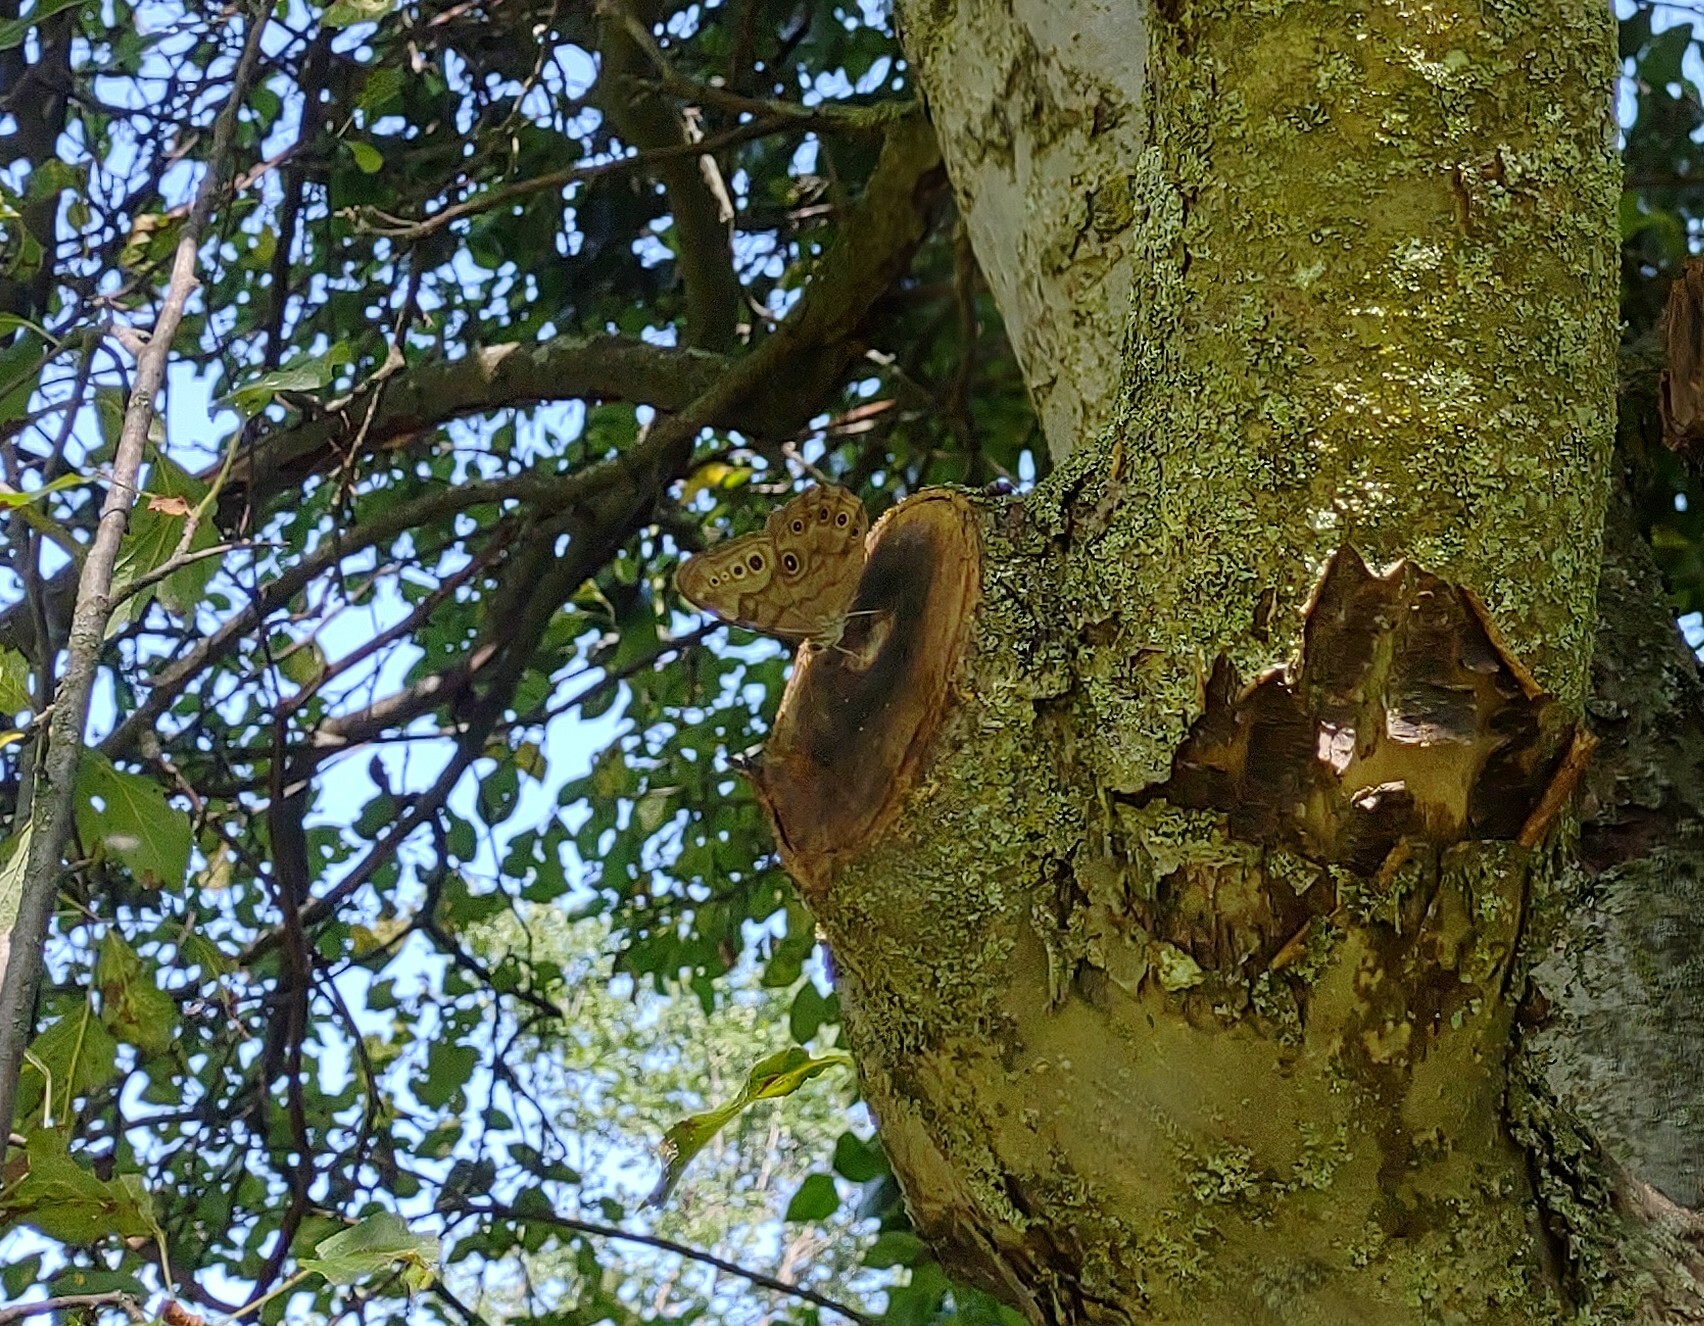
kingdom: Animalia
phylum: Arthropoda
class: Insecta
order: Lepidoptera
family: Nymphalidae
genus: Lethe
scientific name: Lethe anthedon
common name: Northern pearly-eye
